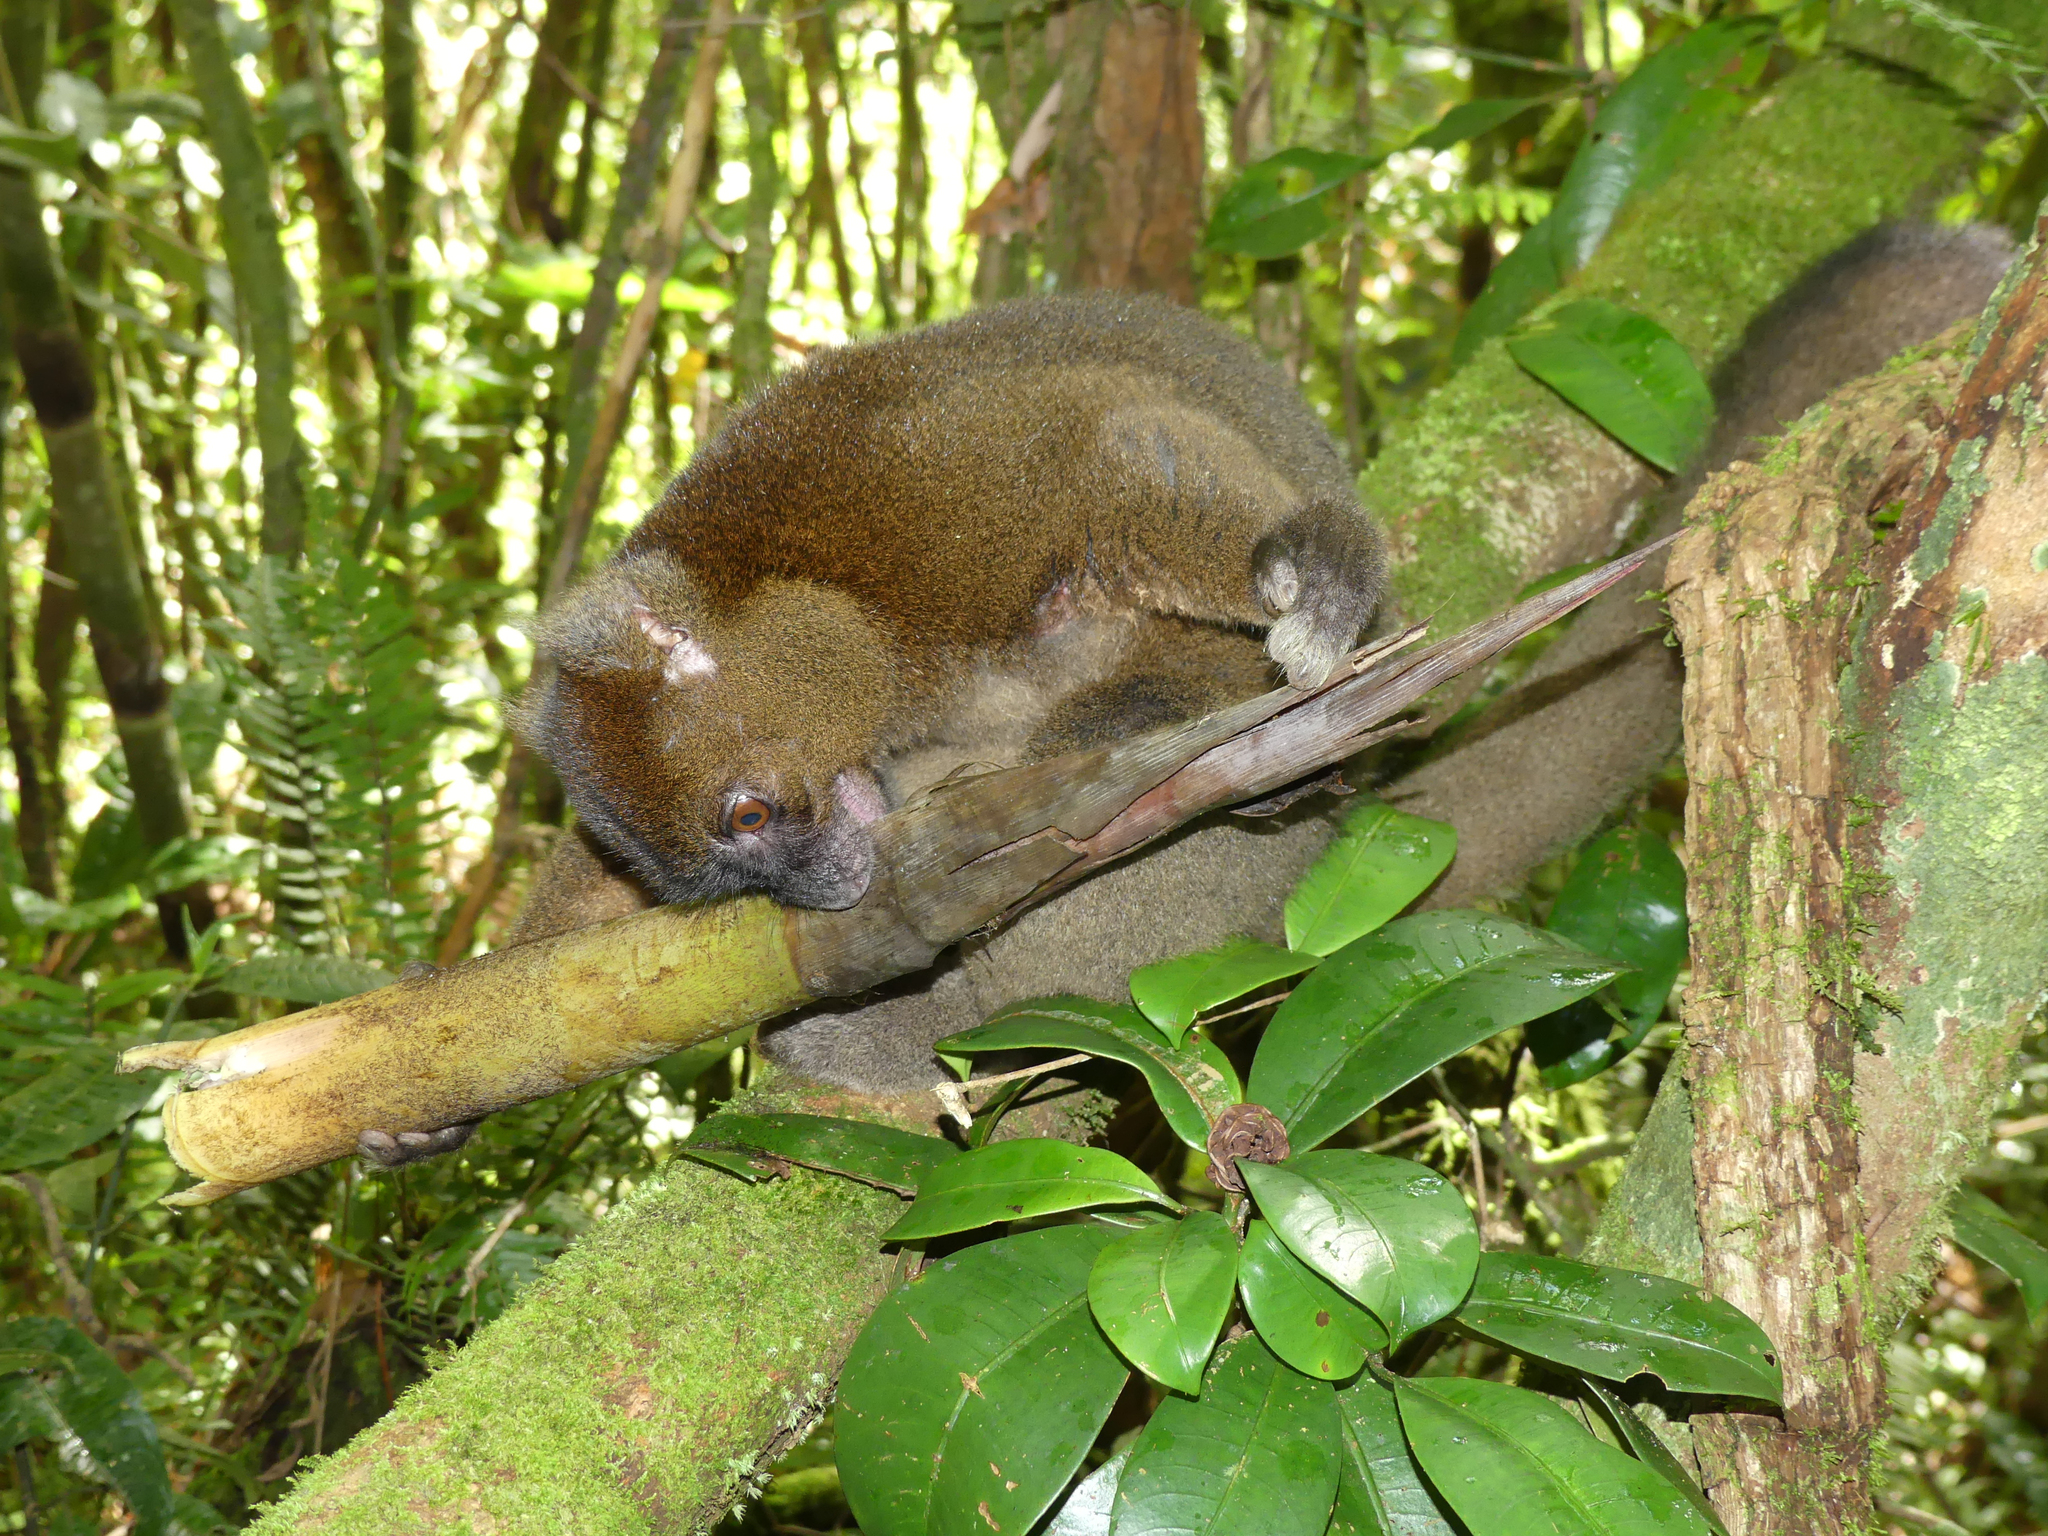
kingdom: Animalia
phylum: Chordata
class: Mammalia
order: Primates
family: Lemuridae
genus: Prolemur
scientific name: Prolemur simus
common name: Greater bamboo lemur
